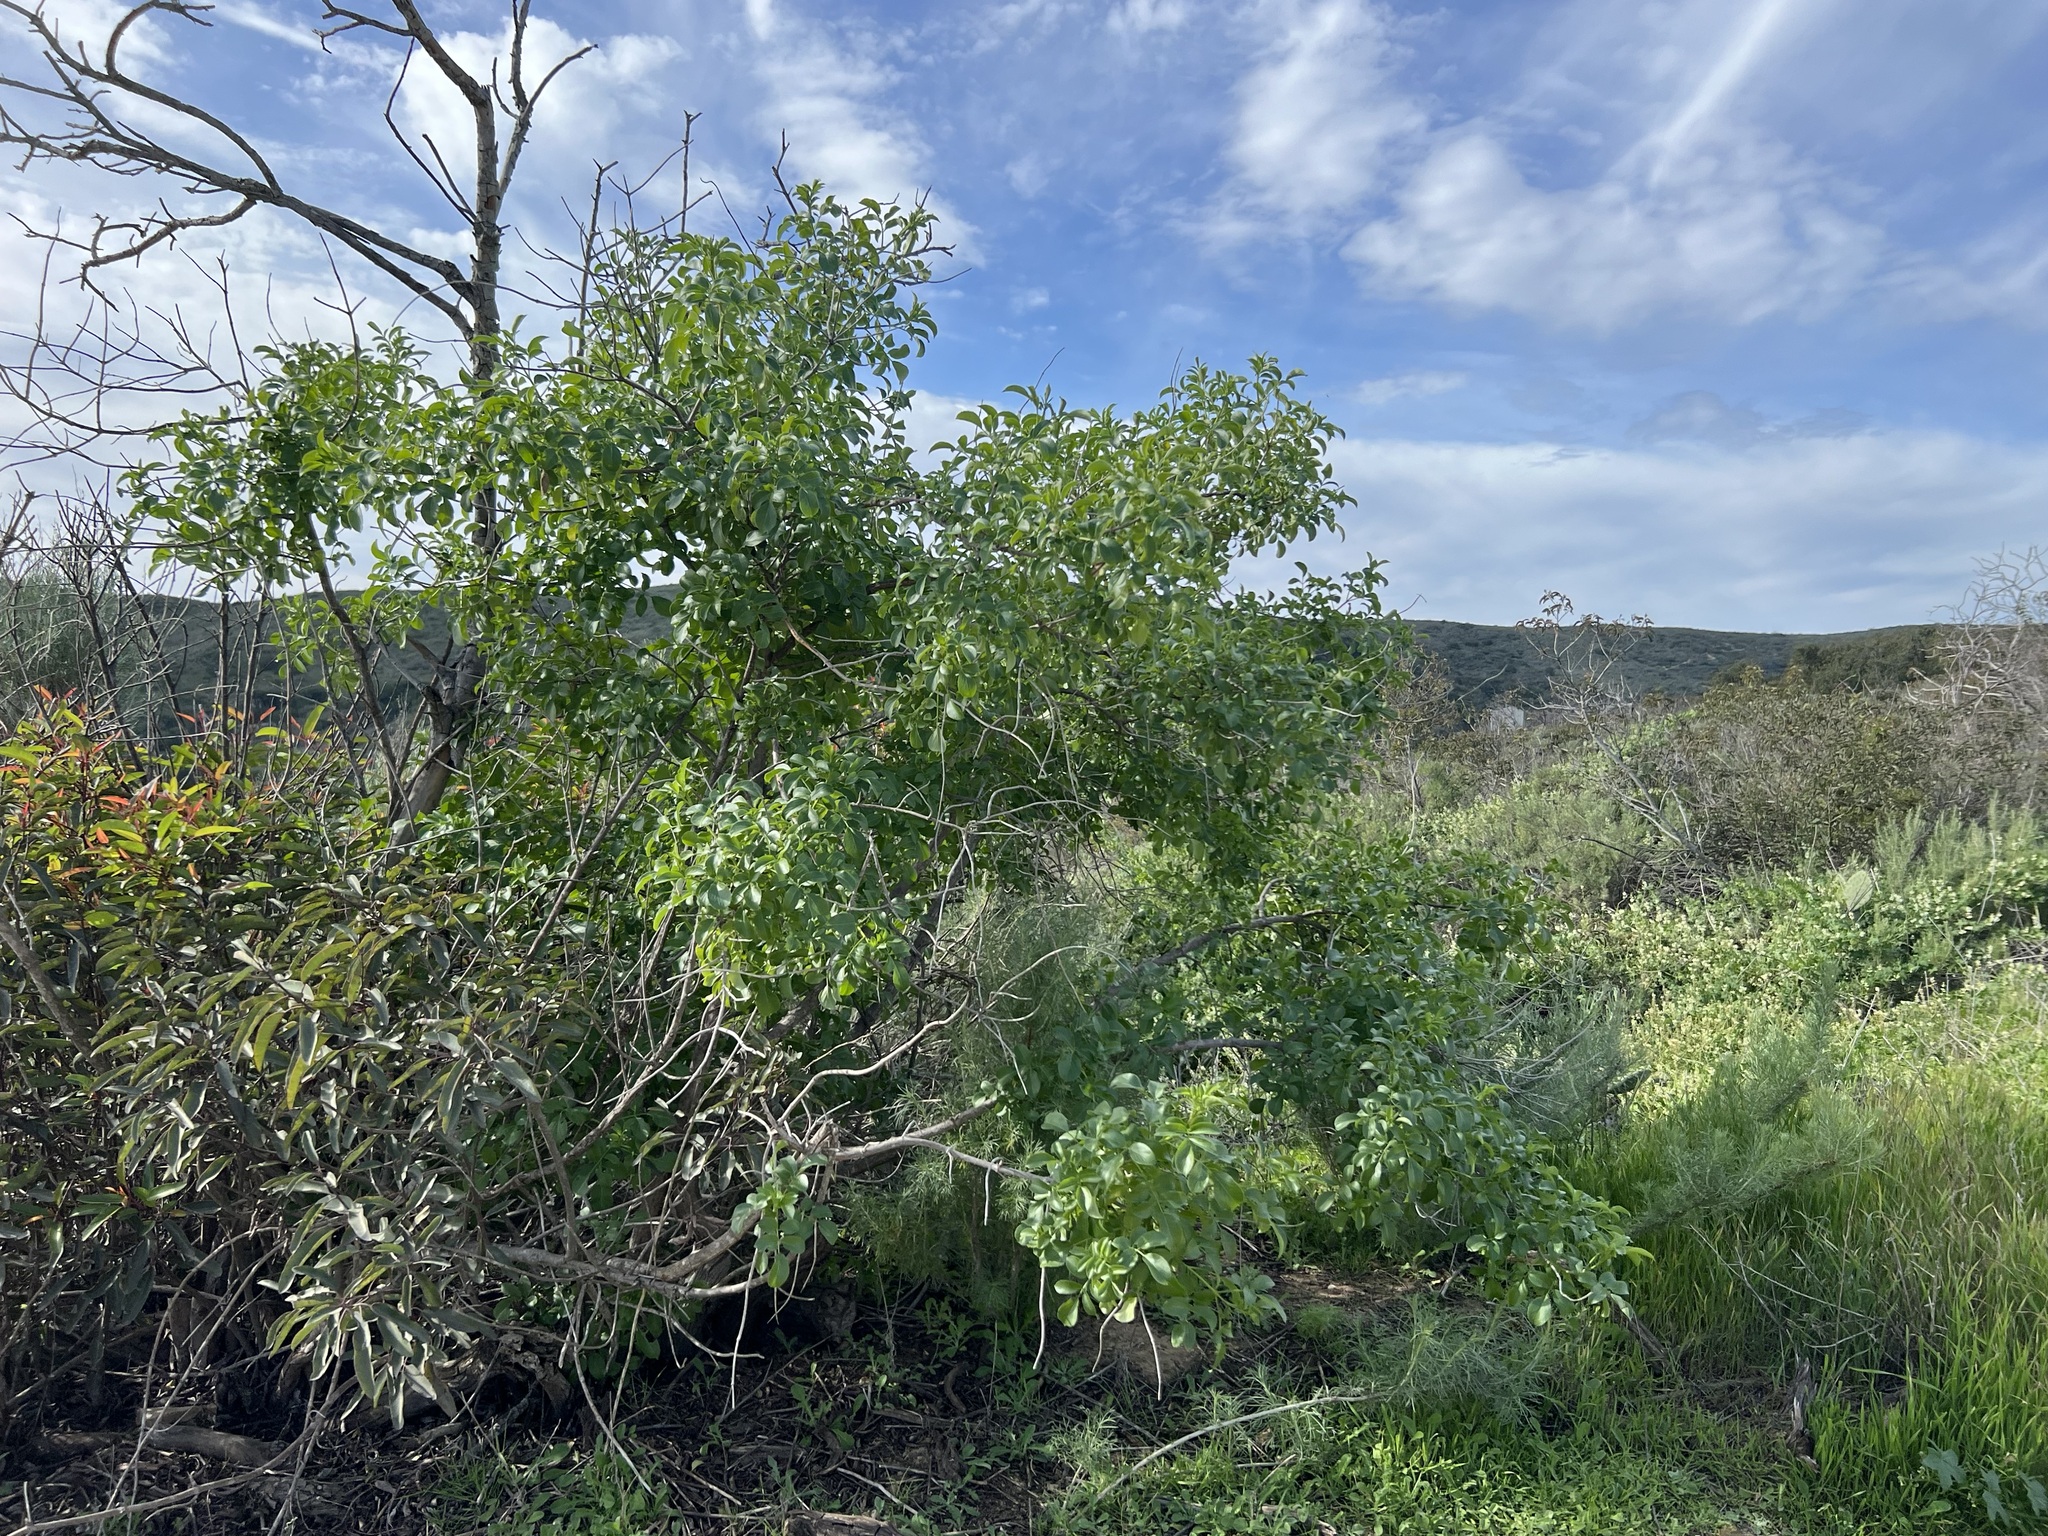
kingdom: Plantae
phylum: Tracheophyta
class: Magnoliopsida
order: Dipsacales
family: Viburnaceae
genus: Sambucus
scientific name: Sambucus cerulea
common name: Blue elder
